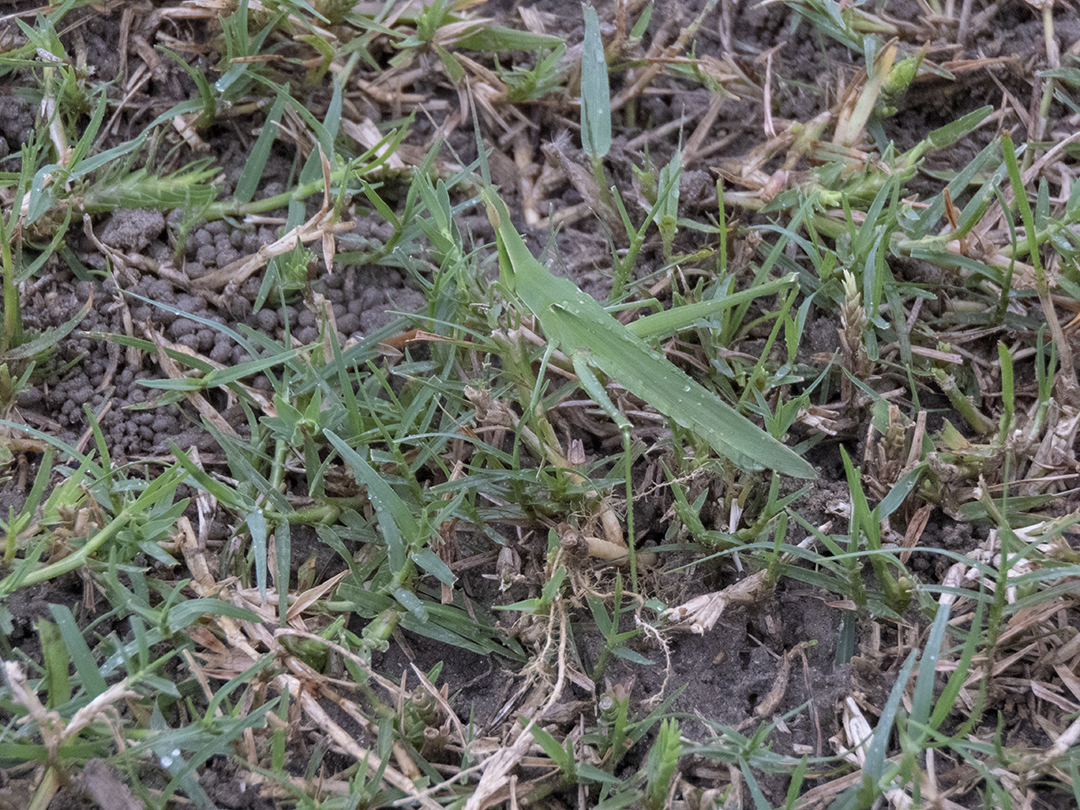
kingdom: Animalia
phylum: Arthropoda
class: Insecta
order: Orthoptera
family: Acrididae
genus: Acrida
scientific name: Acrida exaltata
